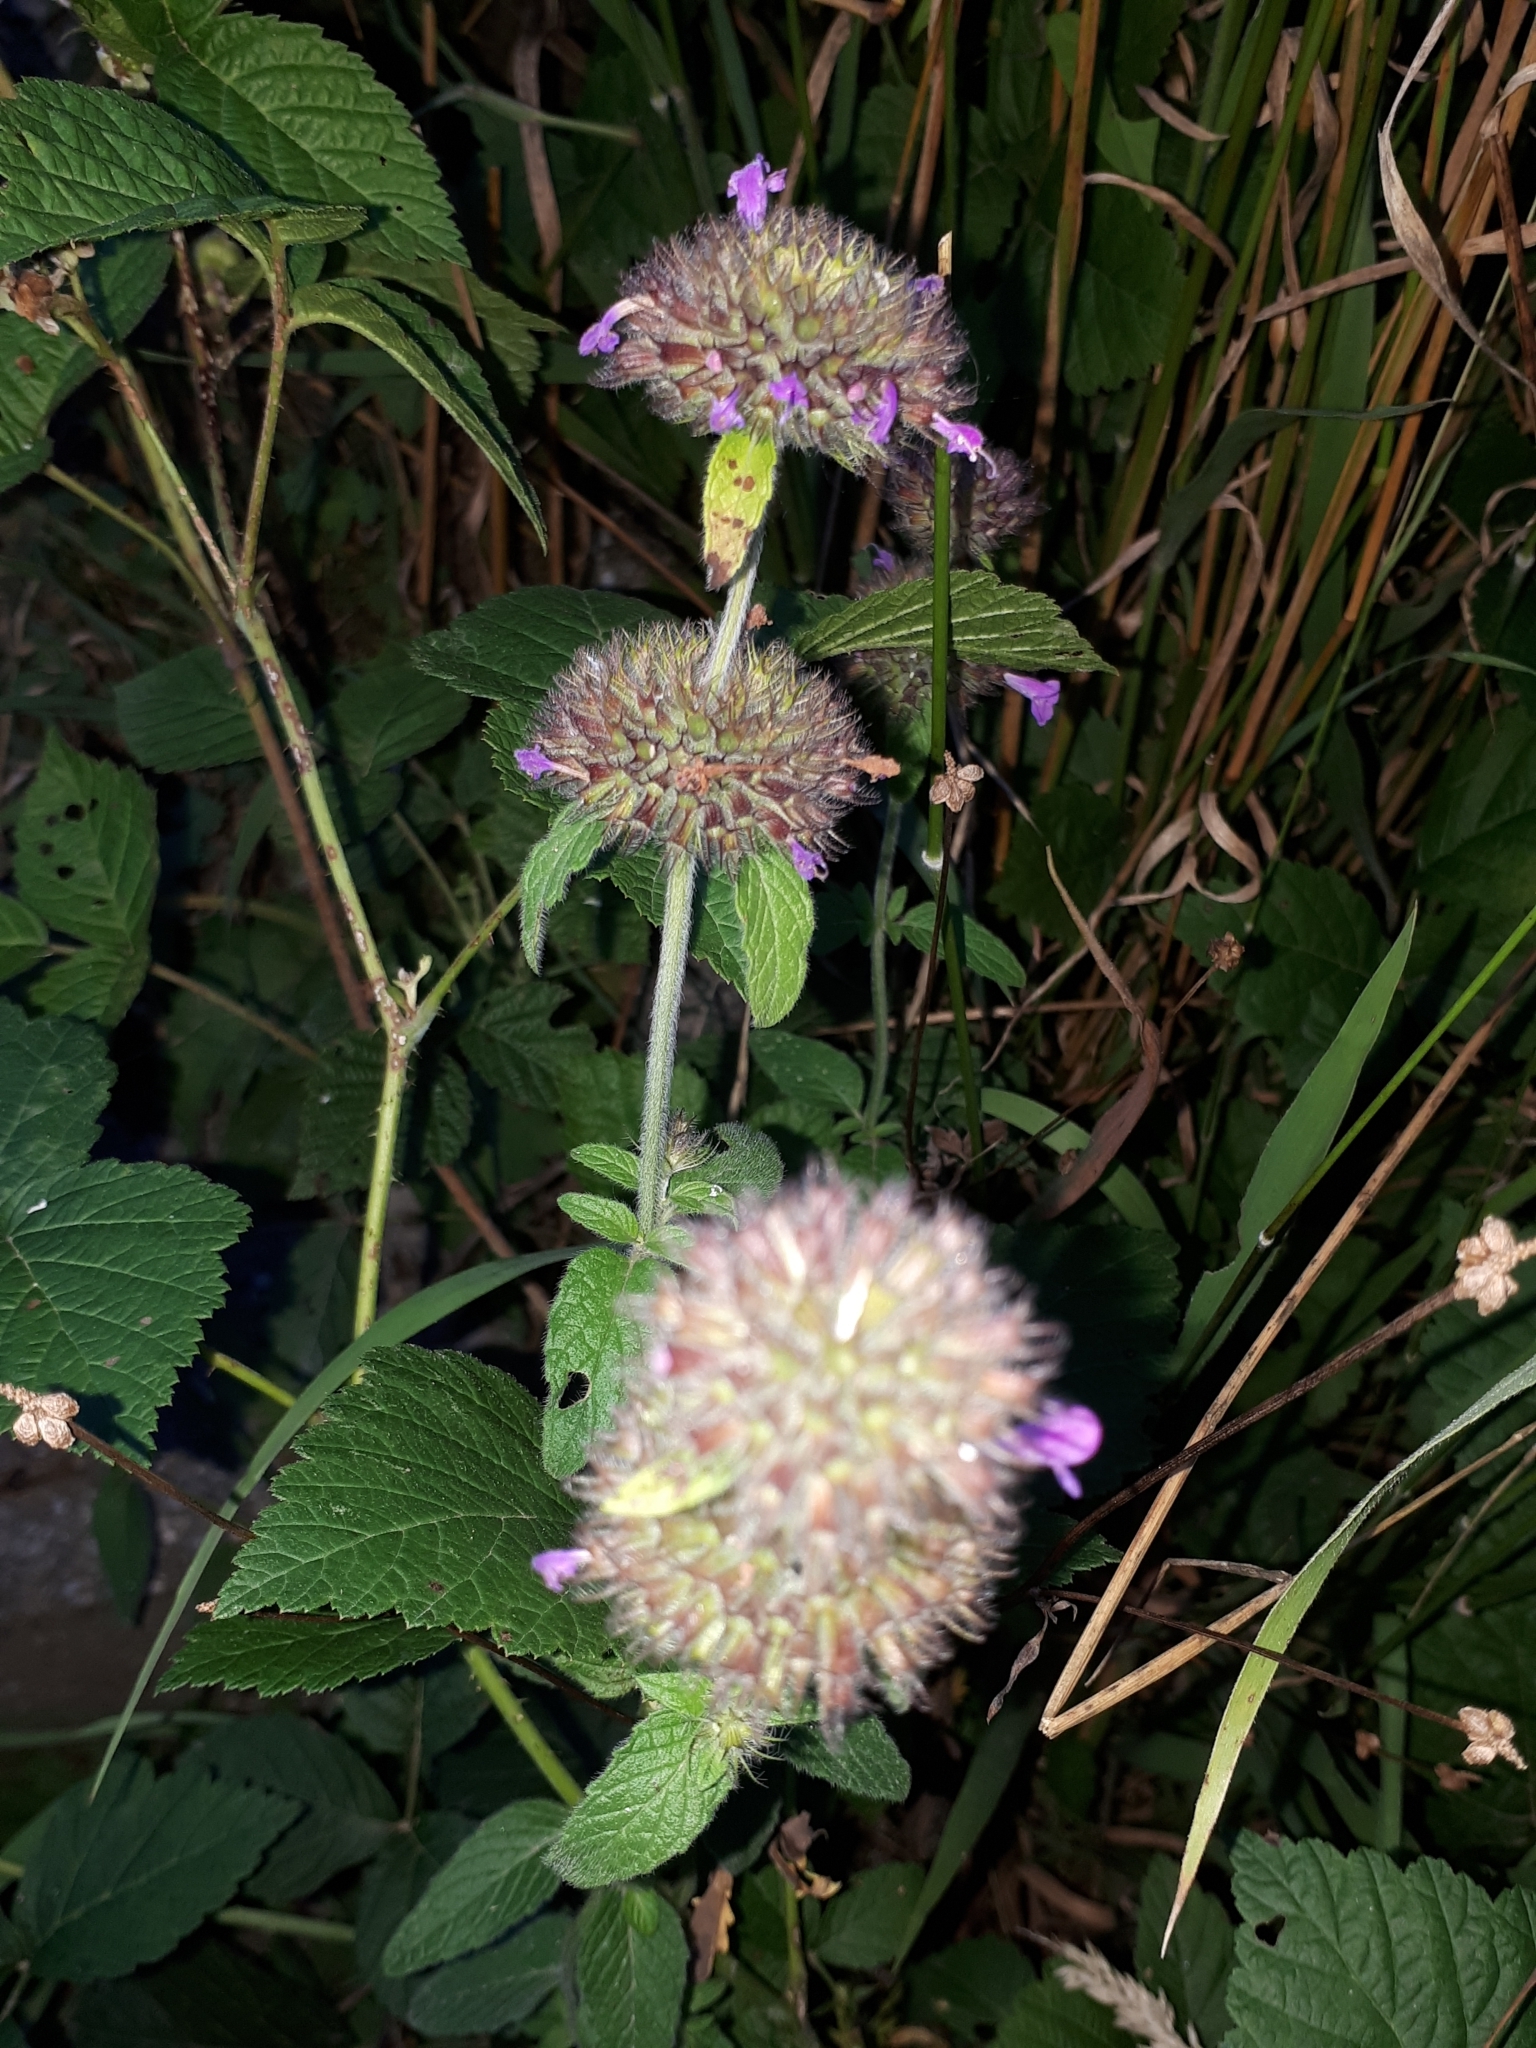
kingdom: Plantae
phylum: Tracheophyta
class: Magnoliopsida
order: Lamiales
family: Lamiaceae
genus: Clinopodium
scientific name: Clinopodium vulgare
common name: Wild basil
